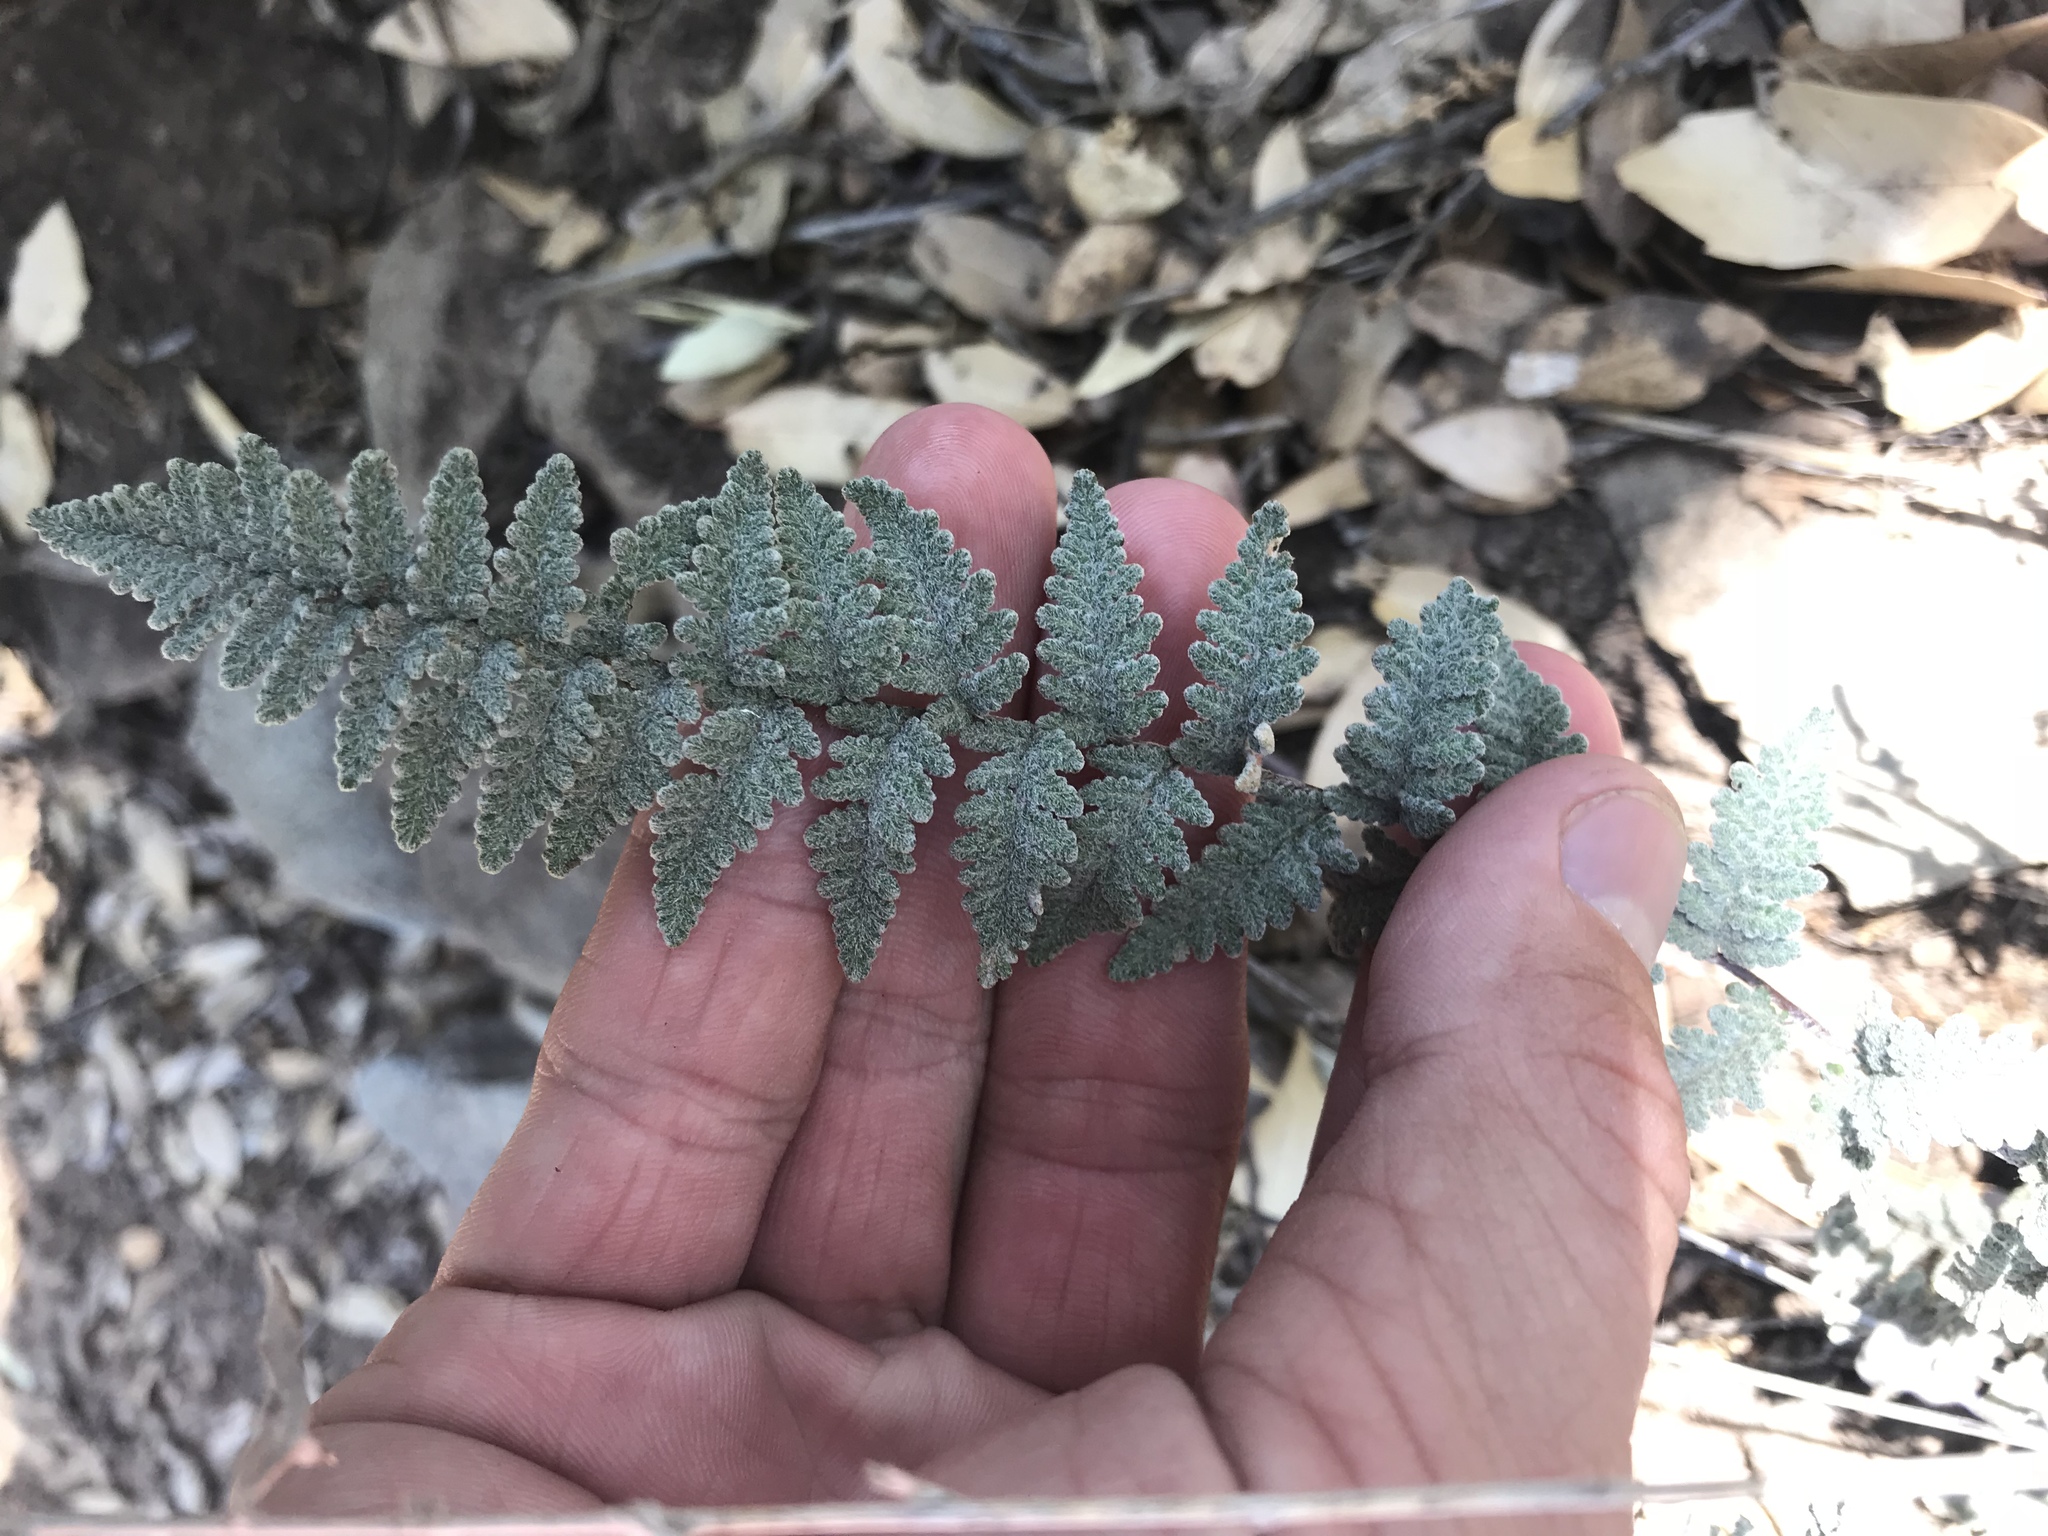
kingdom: Plantae
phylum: Tracheophyta
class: Polypodiopsida
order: Polypodiales
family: Pteridaceae
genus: Myriopteris
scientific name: Myriopteris rufa
